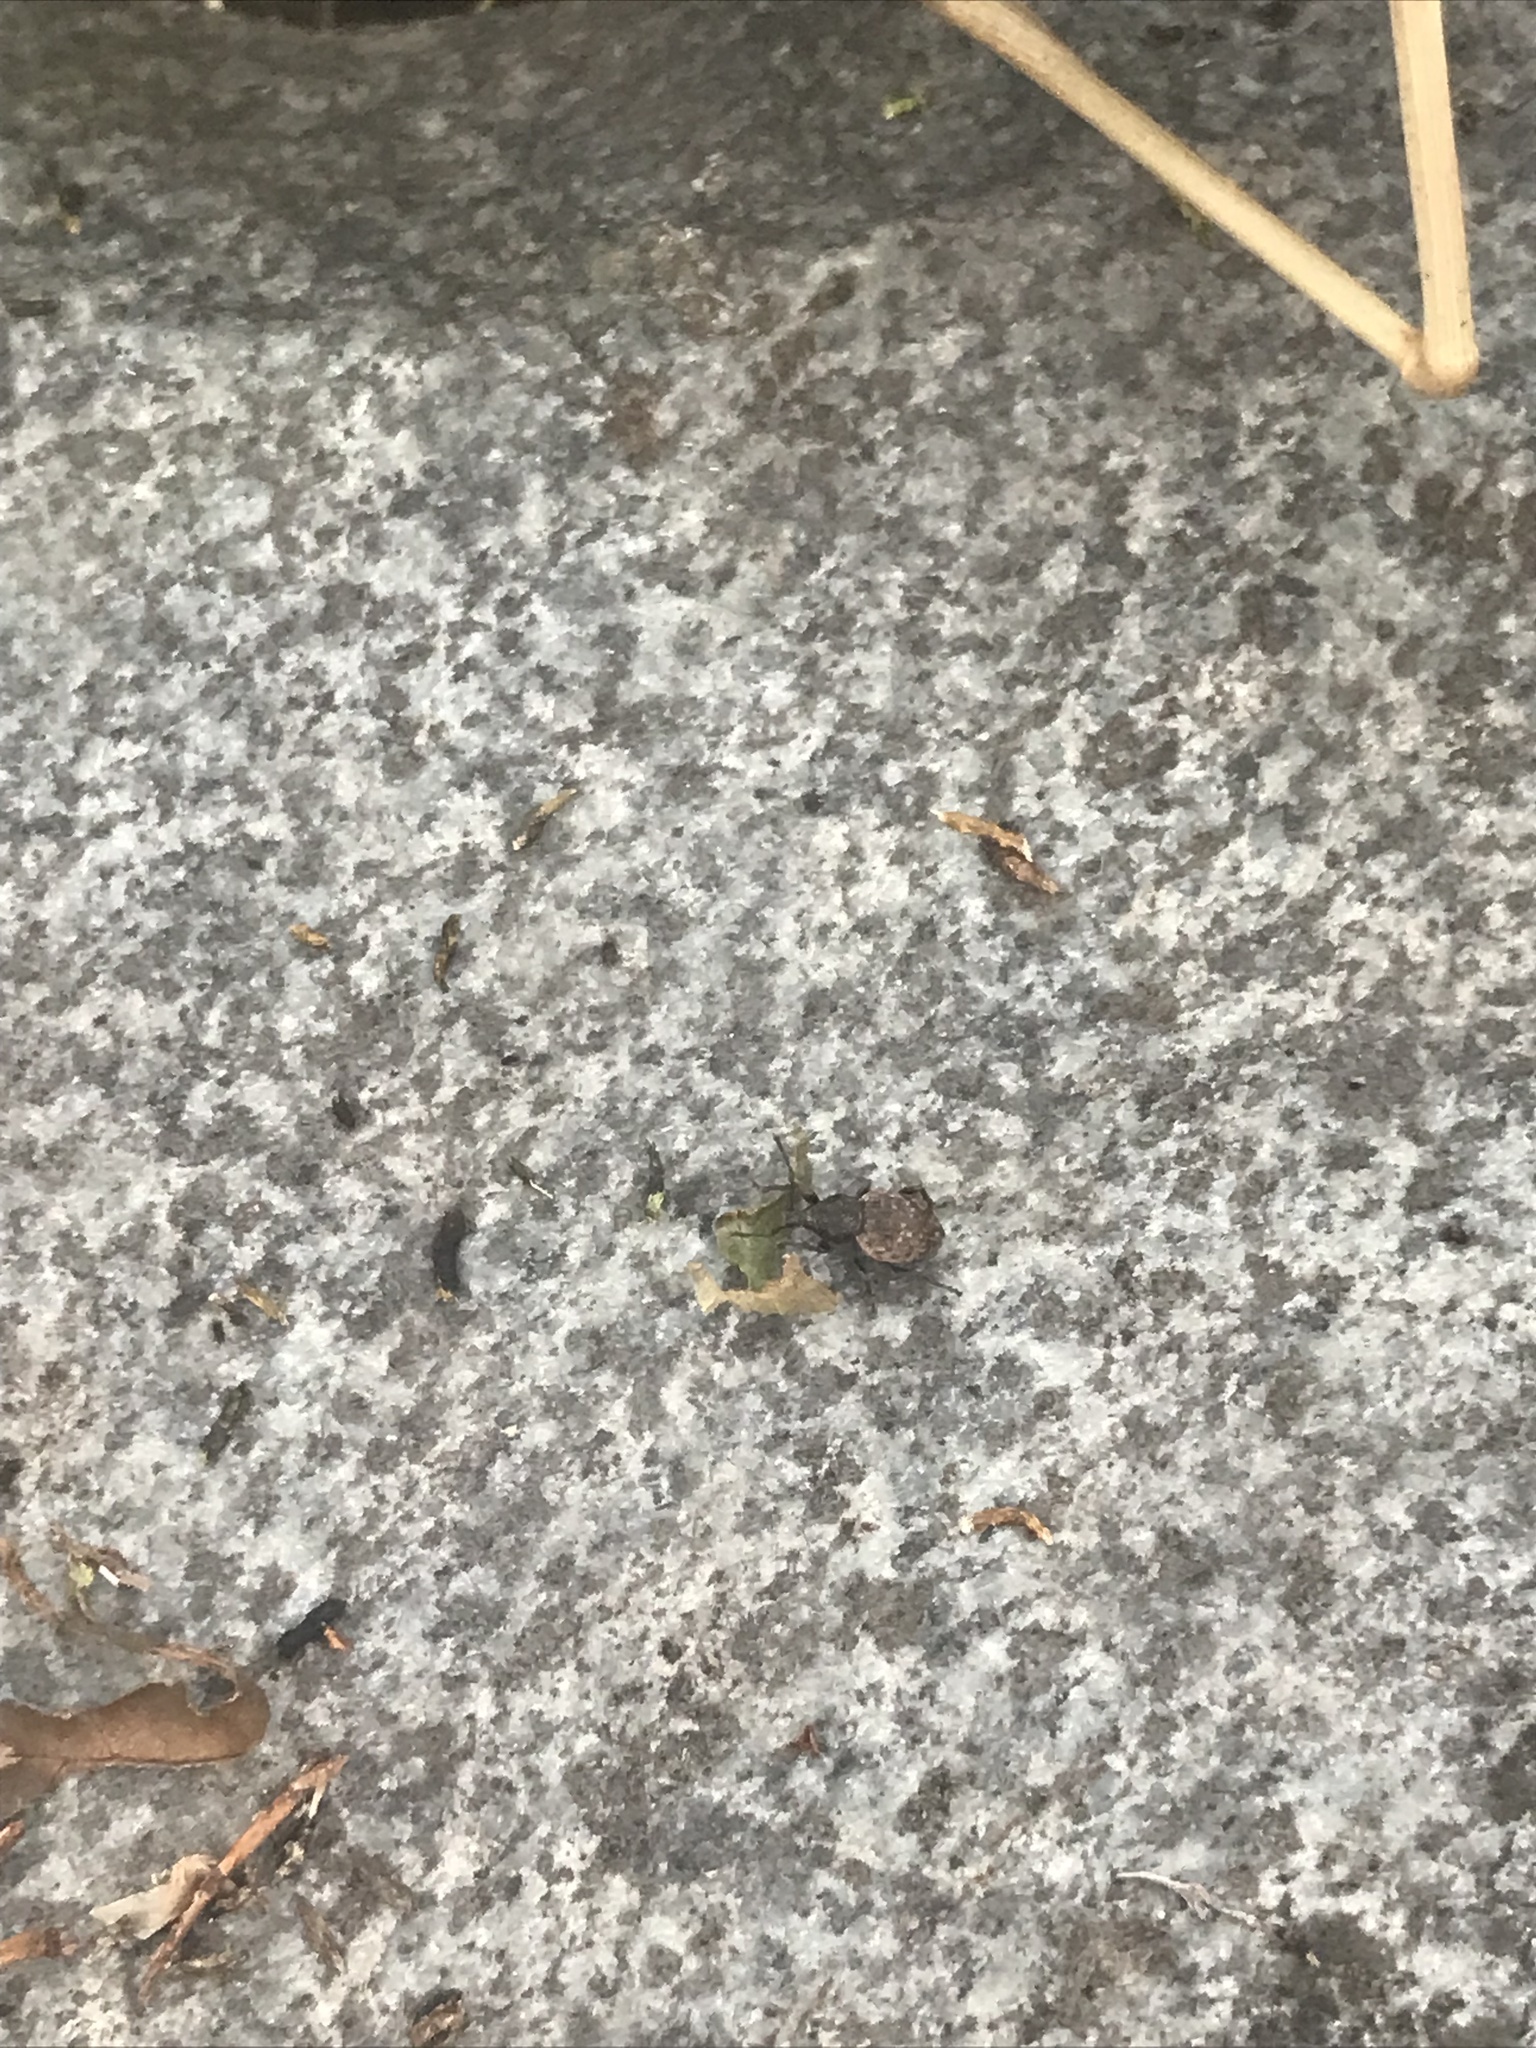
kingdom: Animalia
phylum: Arthropoda
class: Insecta
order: Coleoptera
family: Curculionidae
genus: Otiorhynchus
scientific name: Otiorhynchus raucus
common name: Weevil
